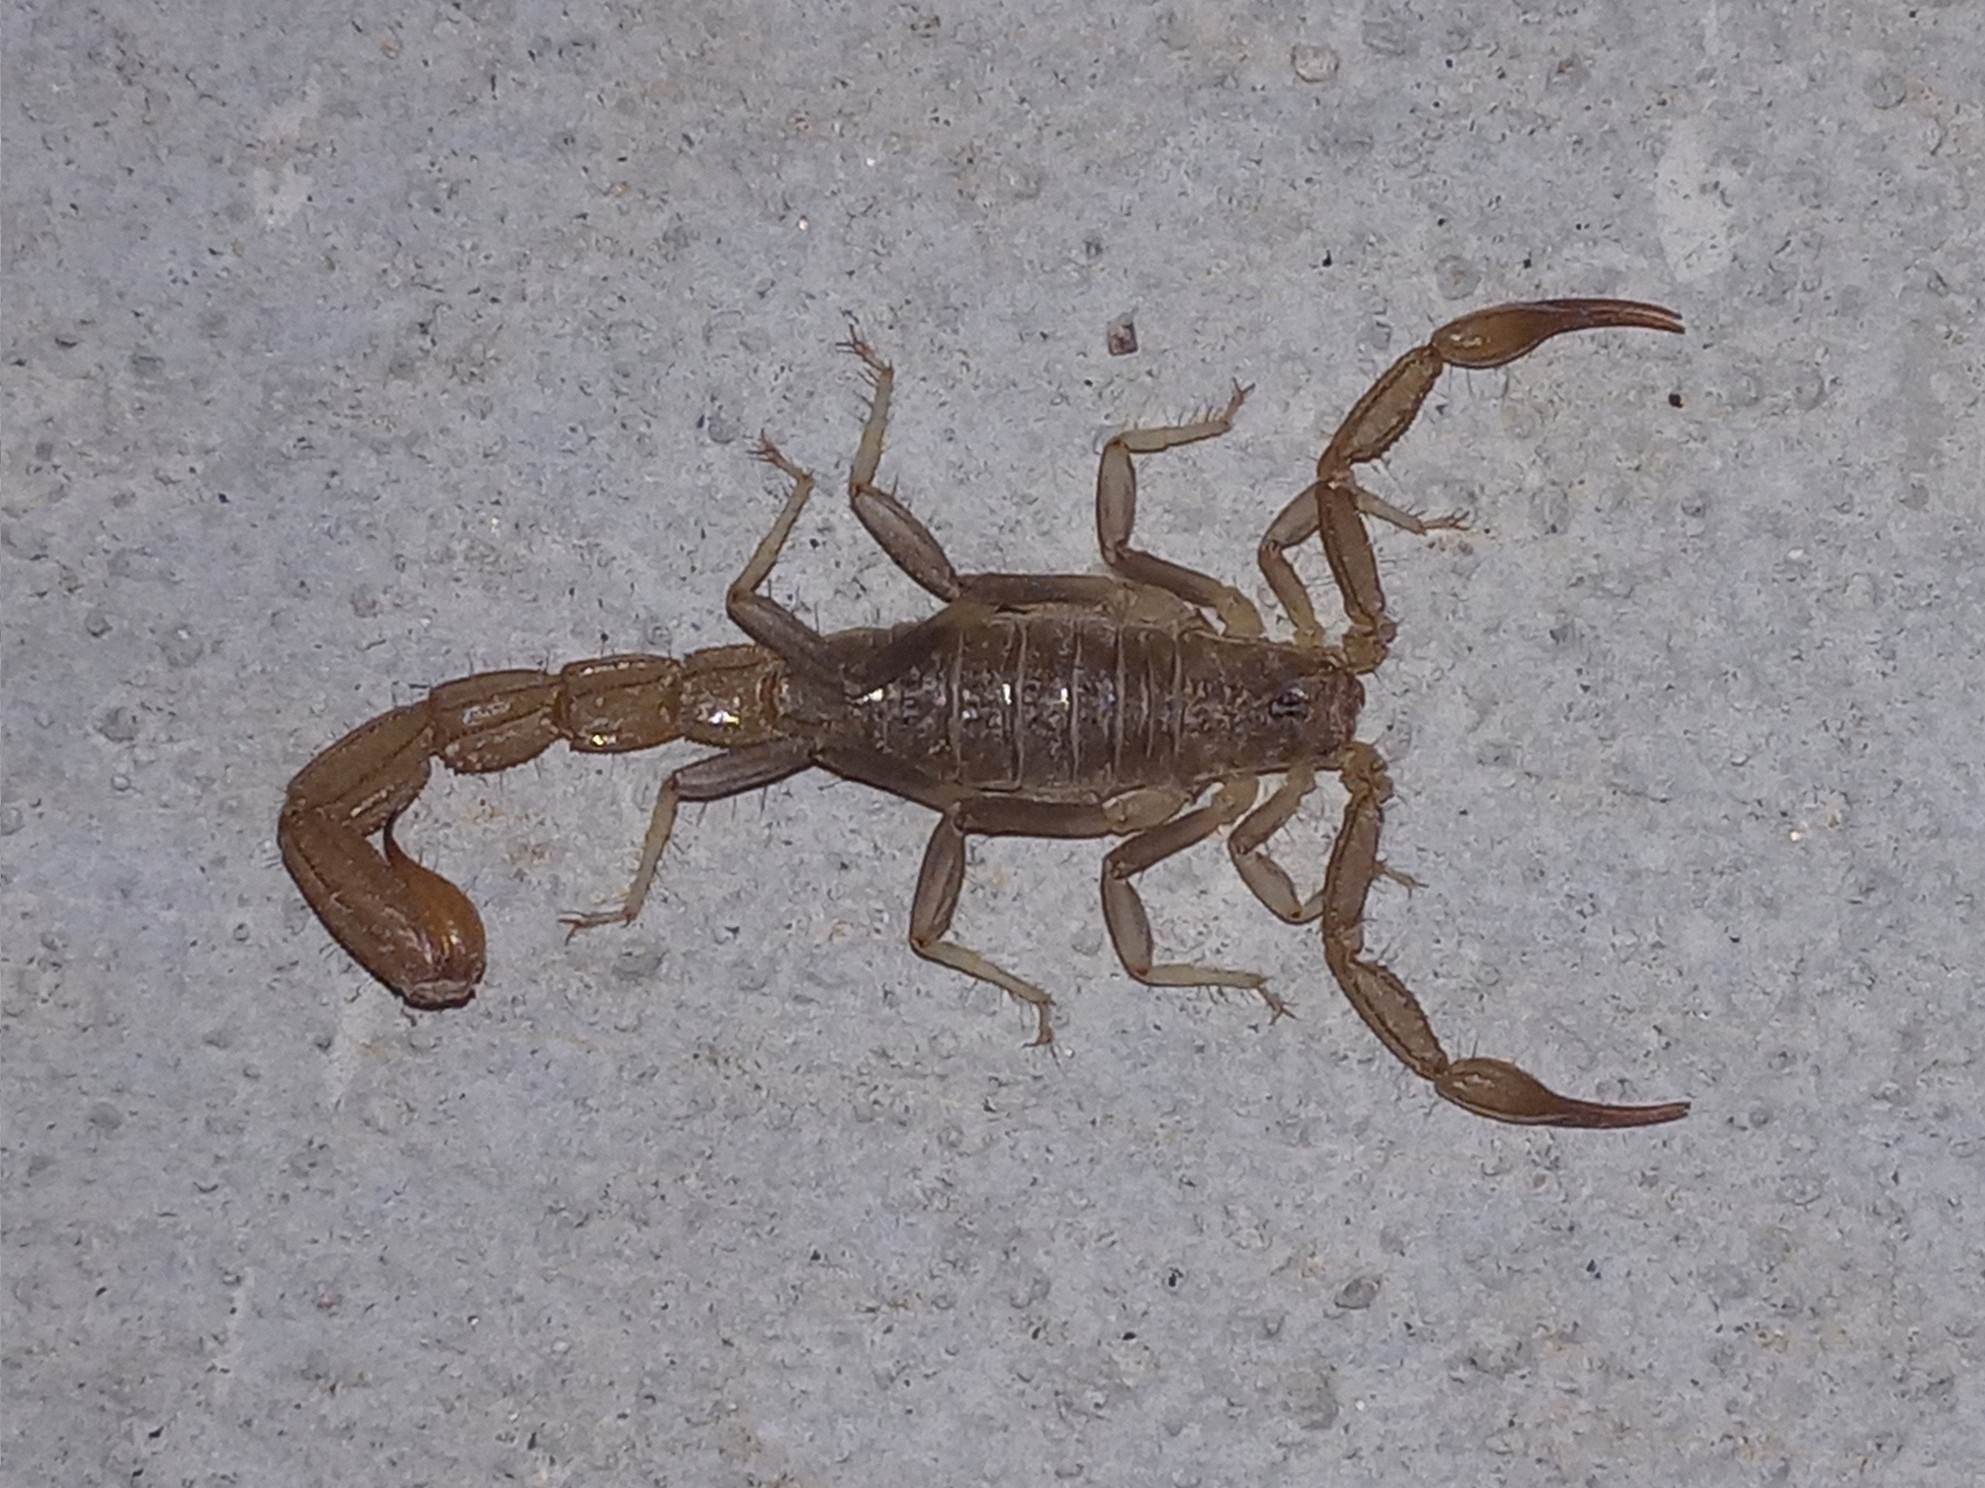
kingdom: Animalia
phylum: Arthropoda
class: Arachnida
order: Scorpiones
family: Vaejovidae
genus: Paravaejovis
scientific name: Paravaejovis puritanus
